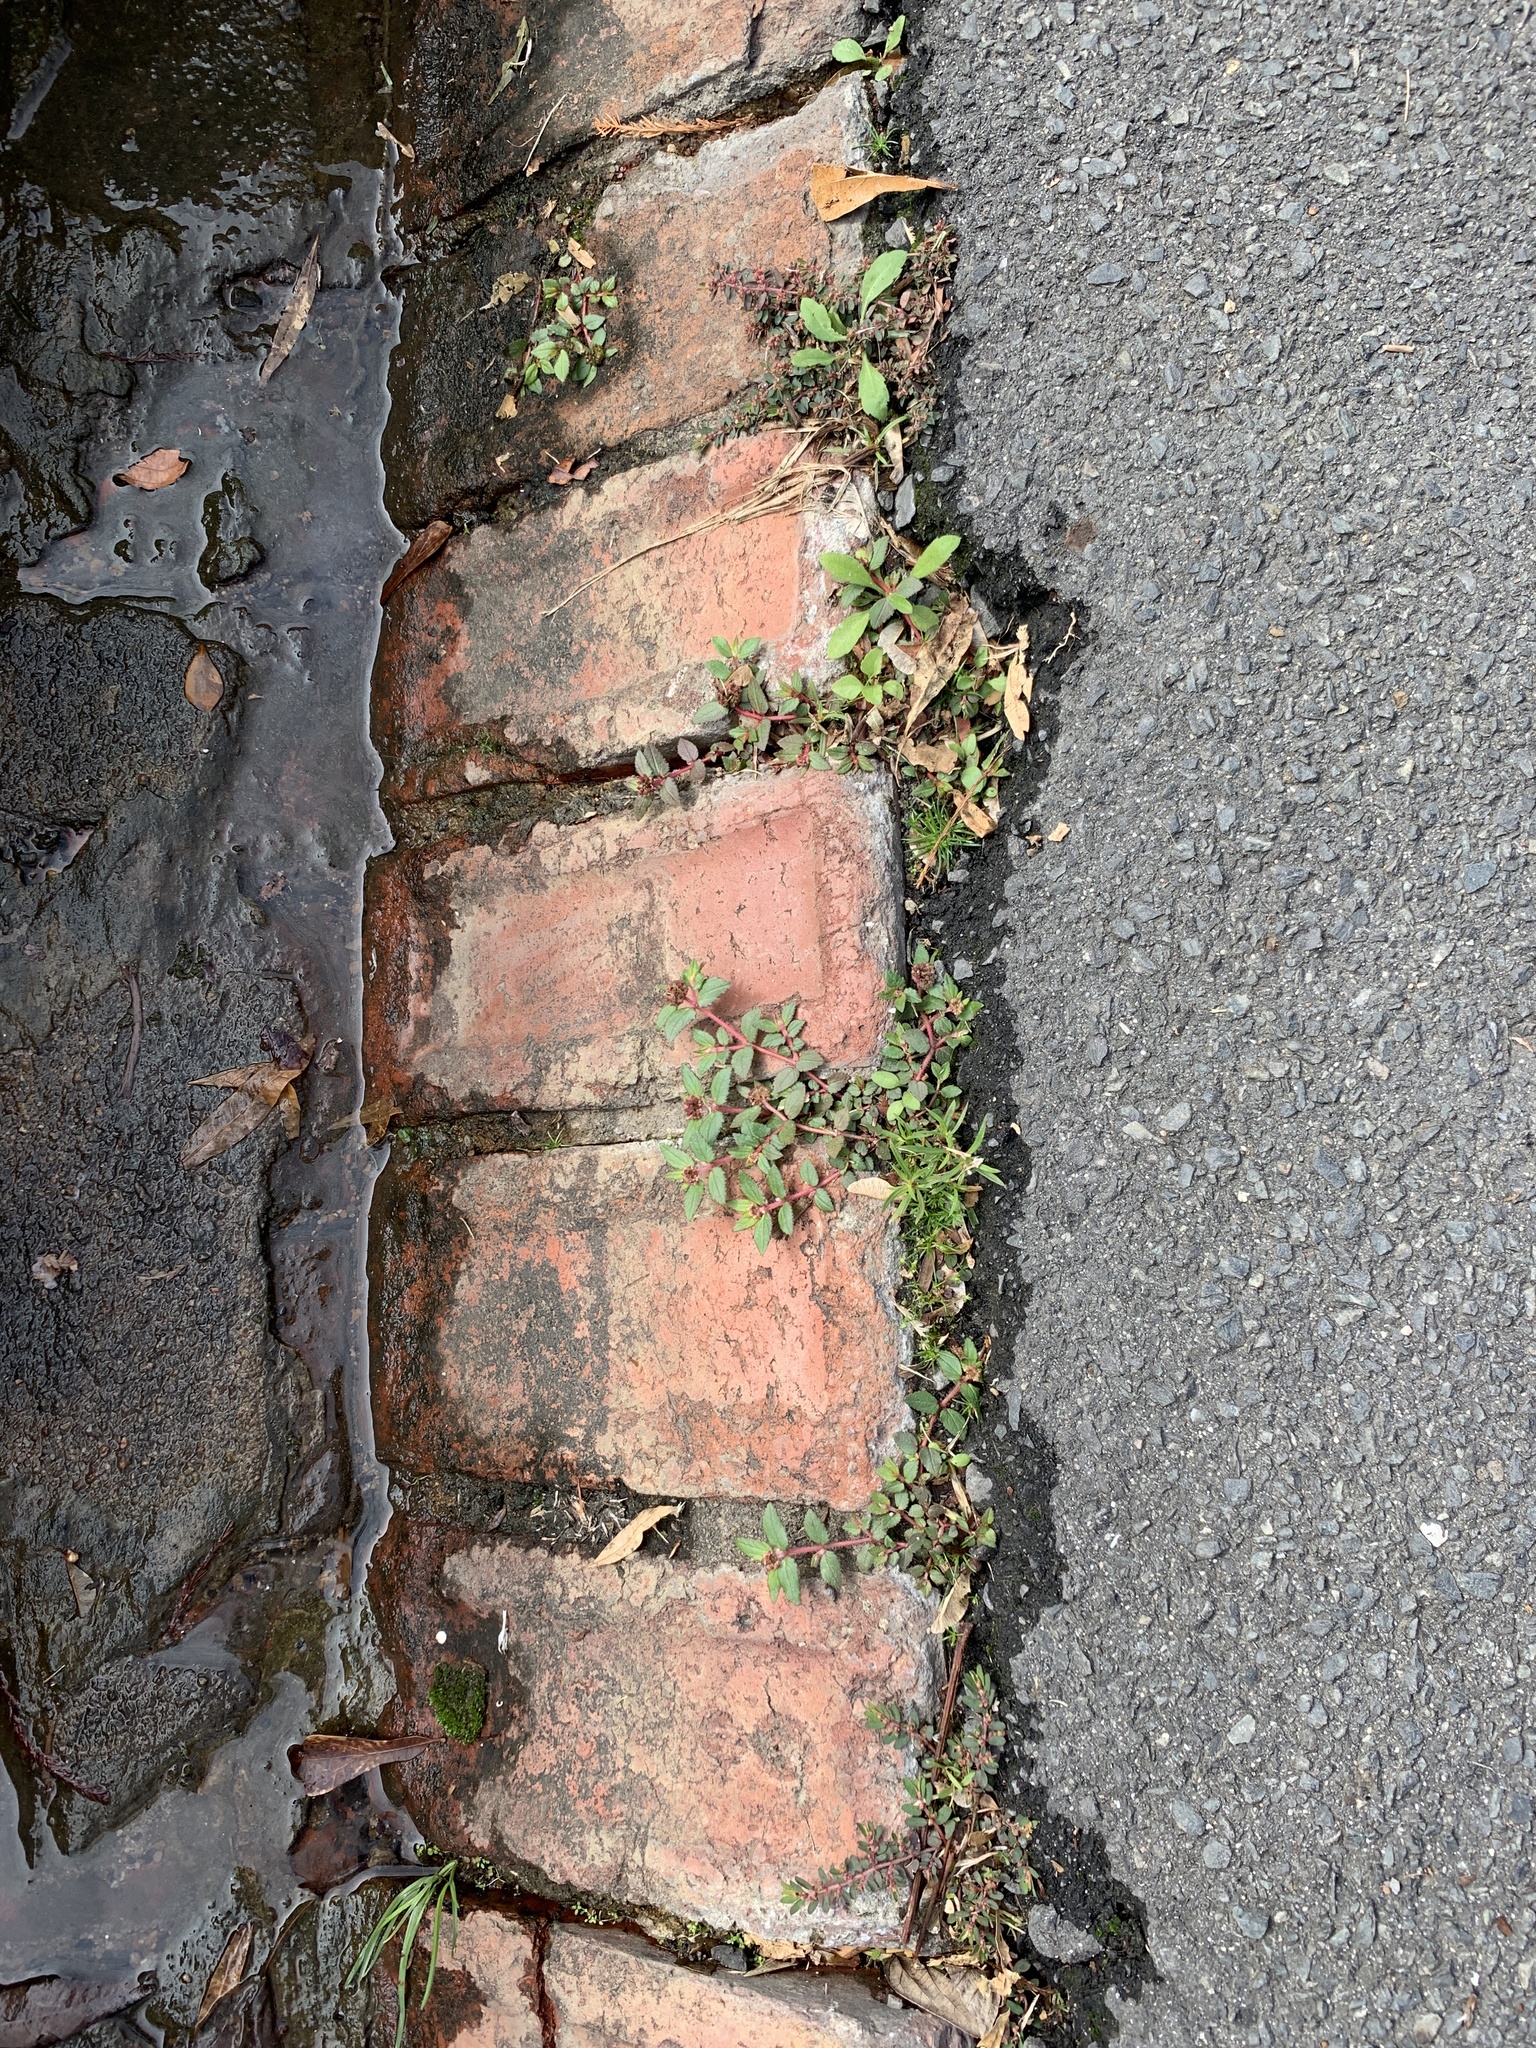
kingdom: Plantae
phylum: Tracheophyta
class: Magnoliopsida
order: Malpighiales
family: Euphorbiaceae
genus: Euphorbia
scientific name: Euphorbia ophthalmica
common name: Florida hammock sandmat
